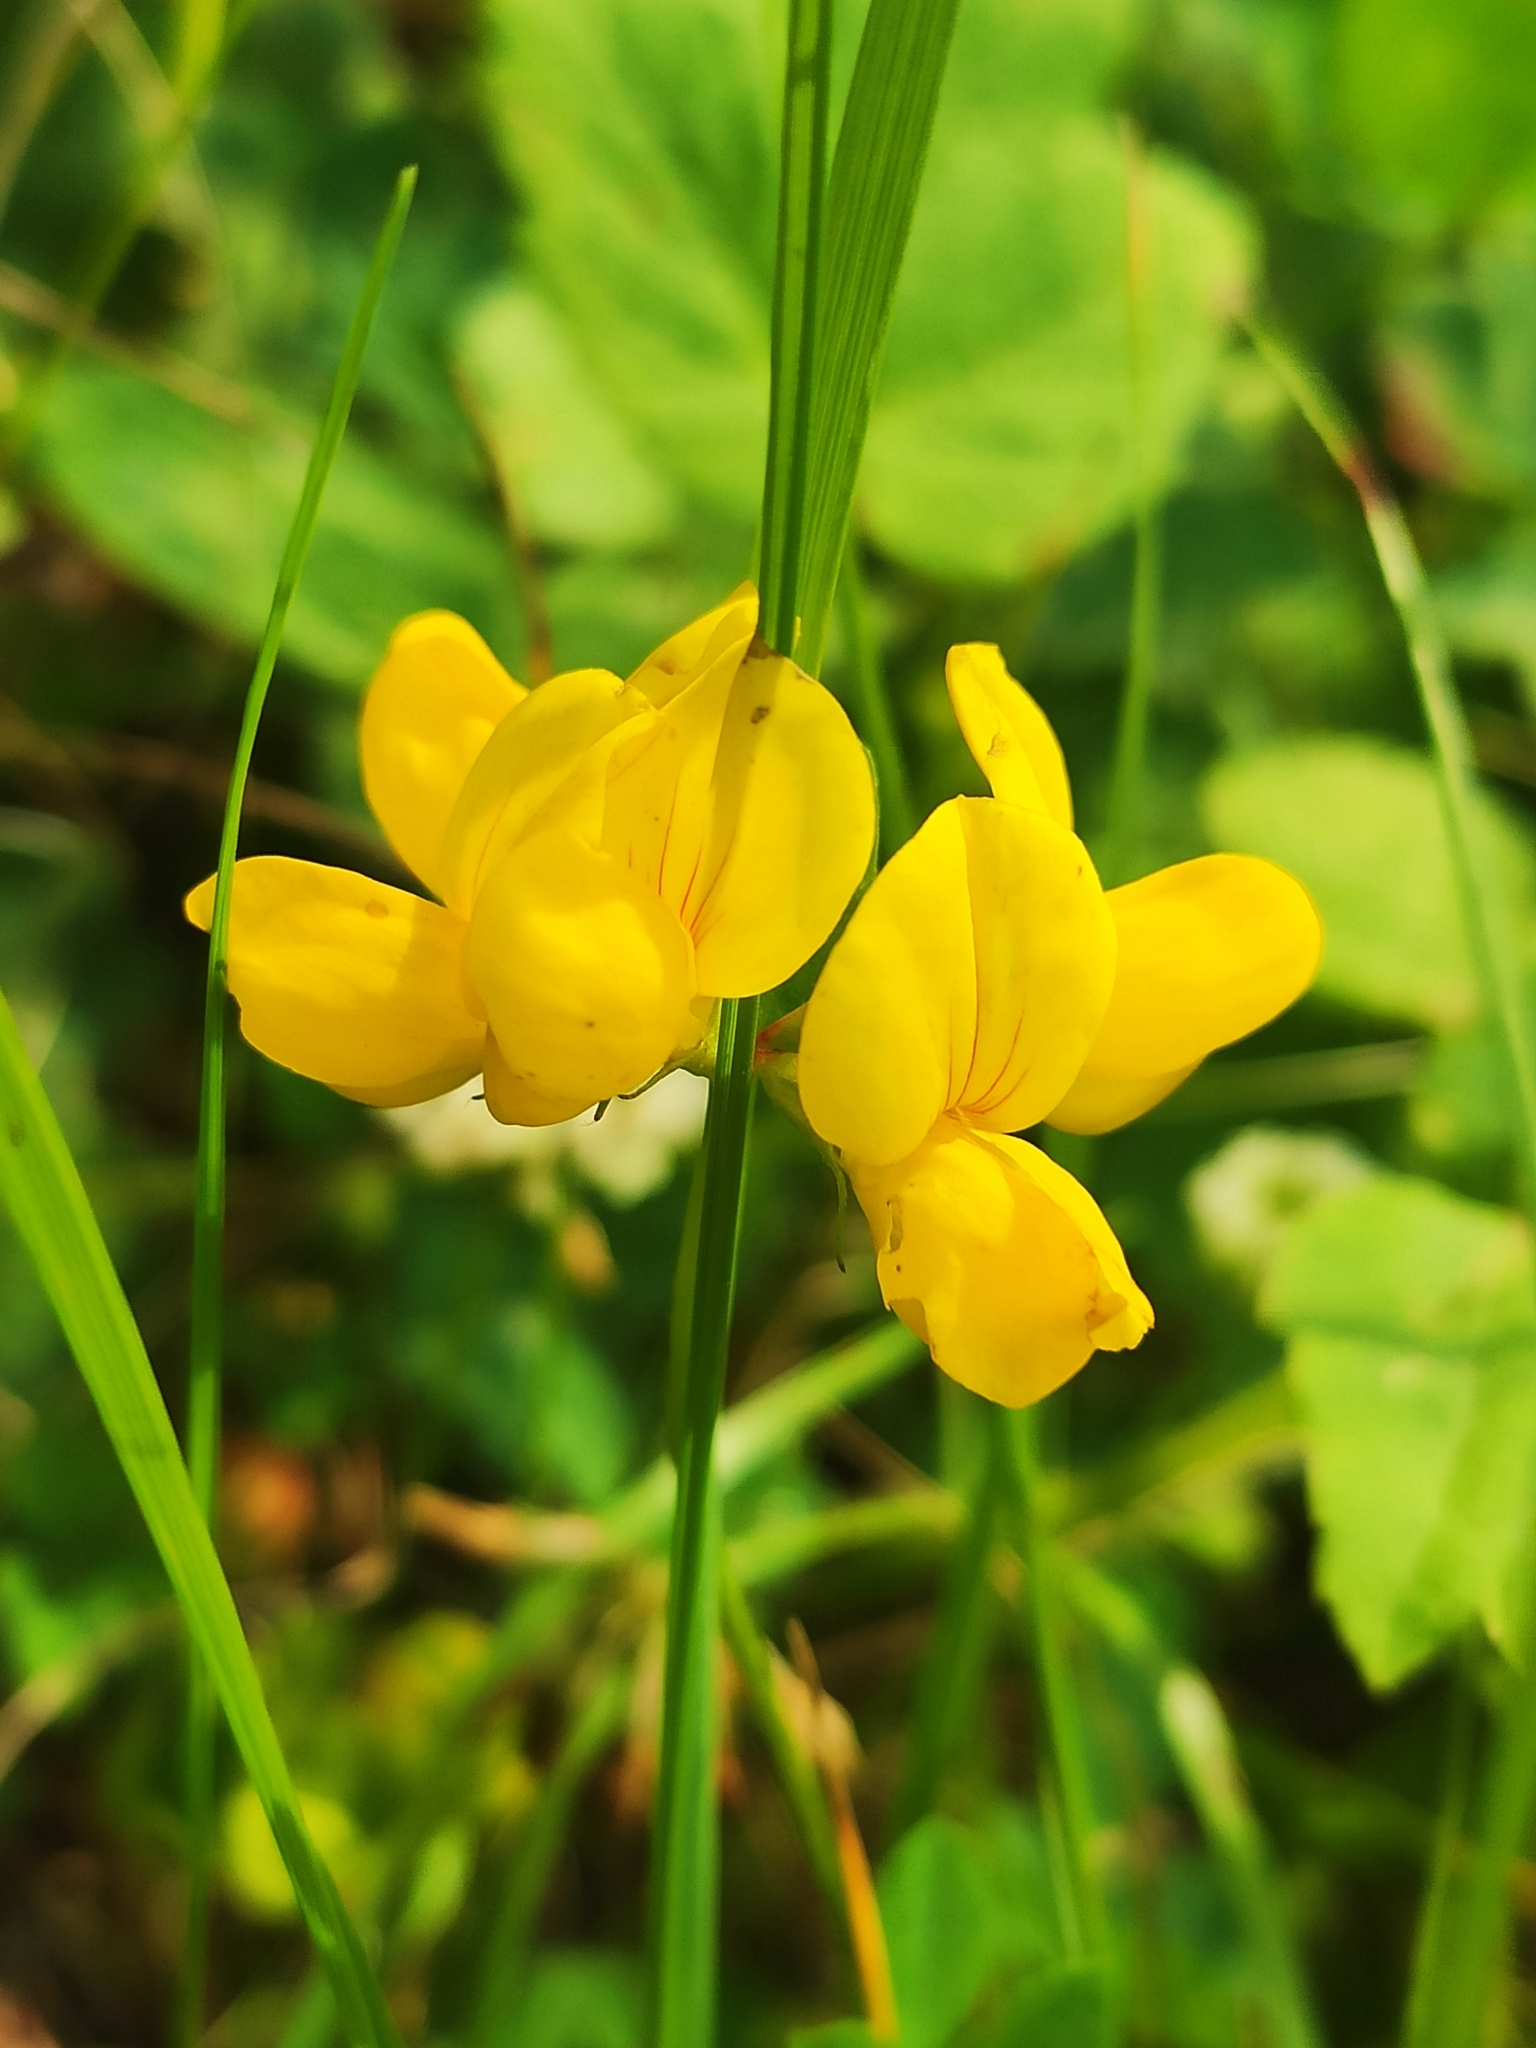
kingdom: Plantae
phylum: Tracheophyta
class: Magnoliopsida
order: Fabales
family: Fabaceae
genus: Lotus
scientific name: Lotus corniculatus
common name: Common bird's-foot-trefoil
